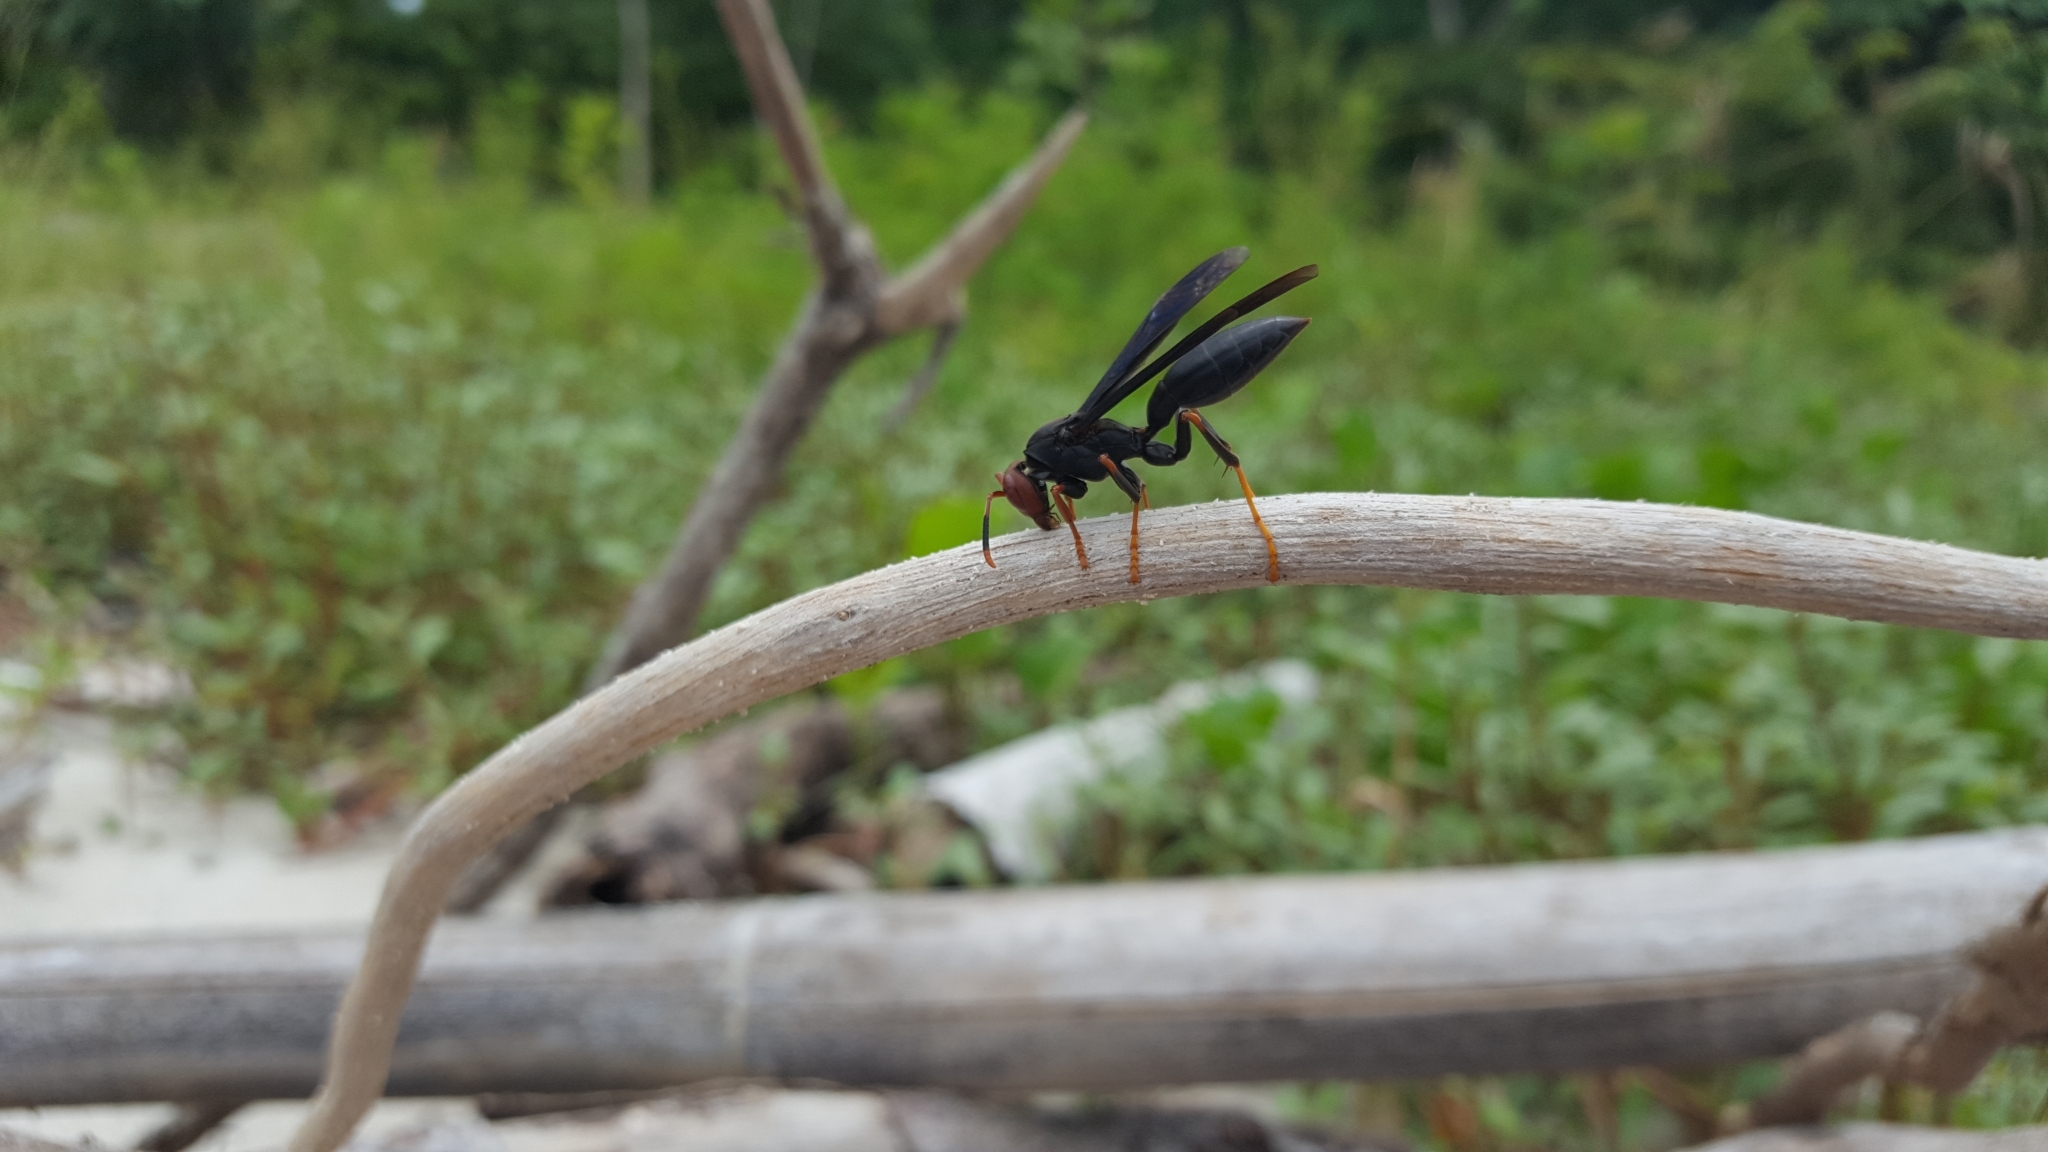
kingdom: Animalia
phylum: Arthropoda
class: Insecta
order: Hymenoptera
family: Eumenidae
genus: Polistes
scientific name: Polistes erythrocephalus
